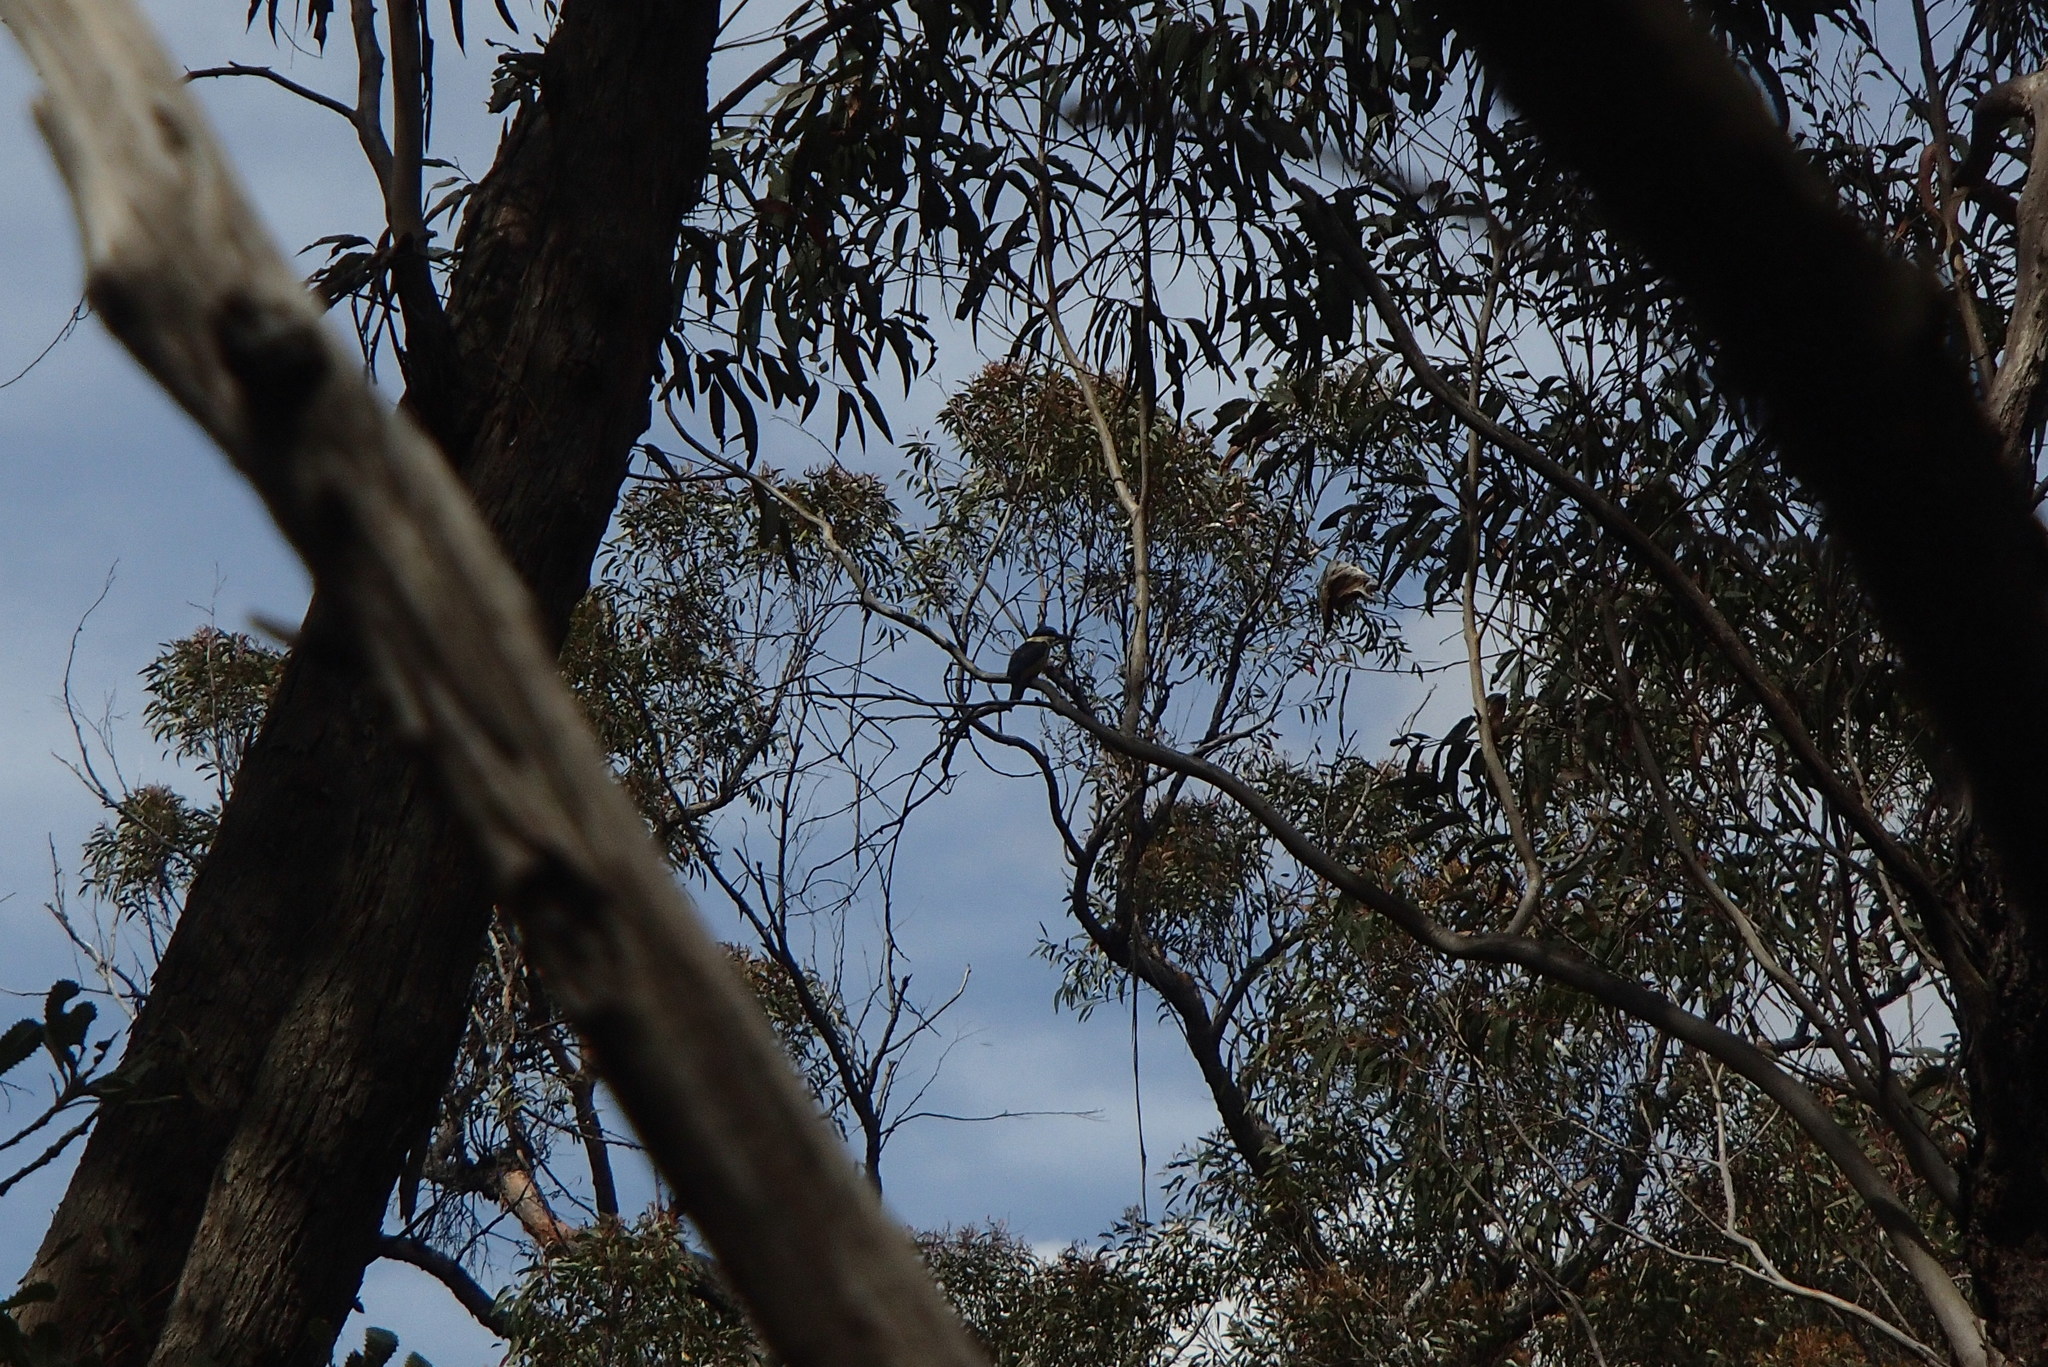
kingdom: Animalia
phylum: Chordata
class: Aves
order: Coraciiformes
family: Alcedinidae
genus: Todiramphus
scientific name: Todiramphus sanctus
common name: Sacred kingfisher
